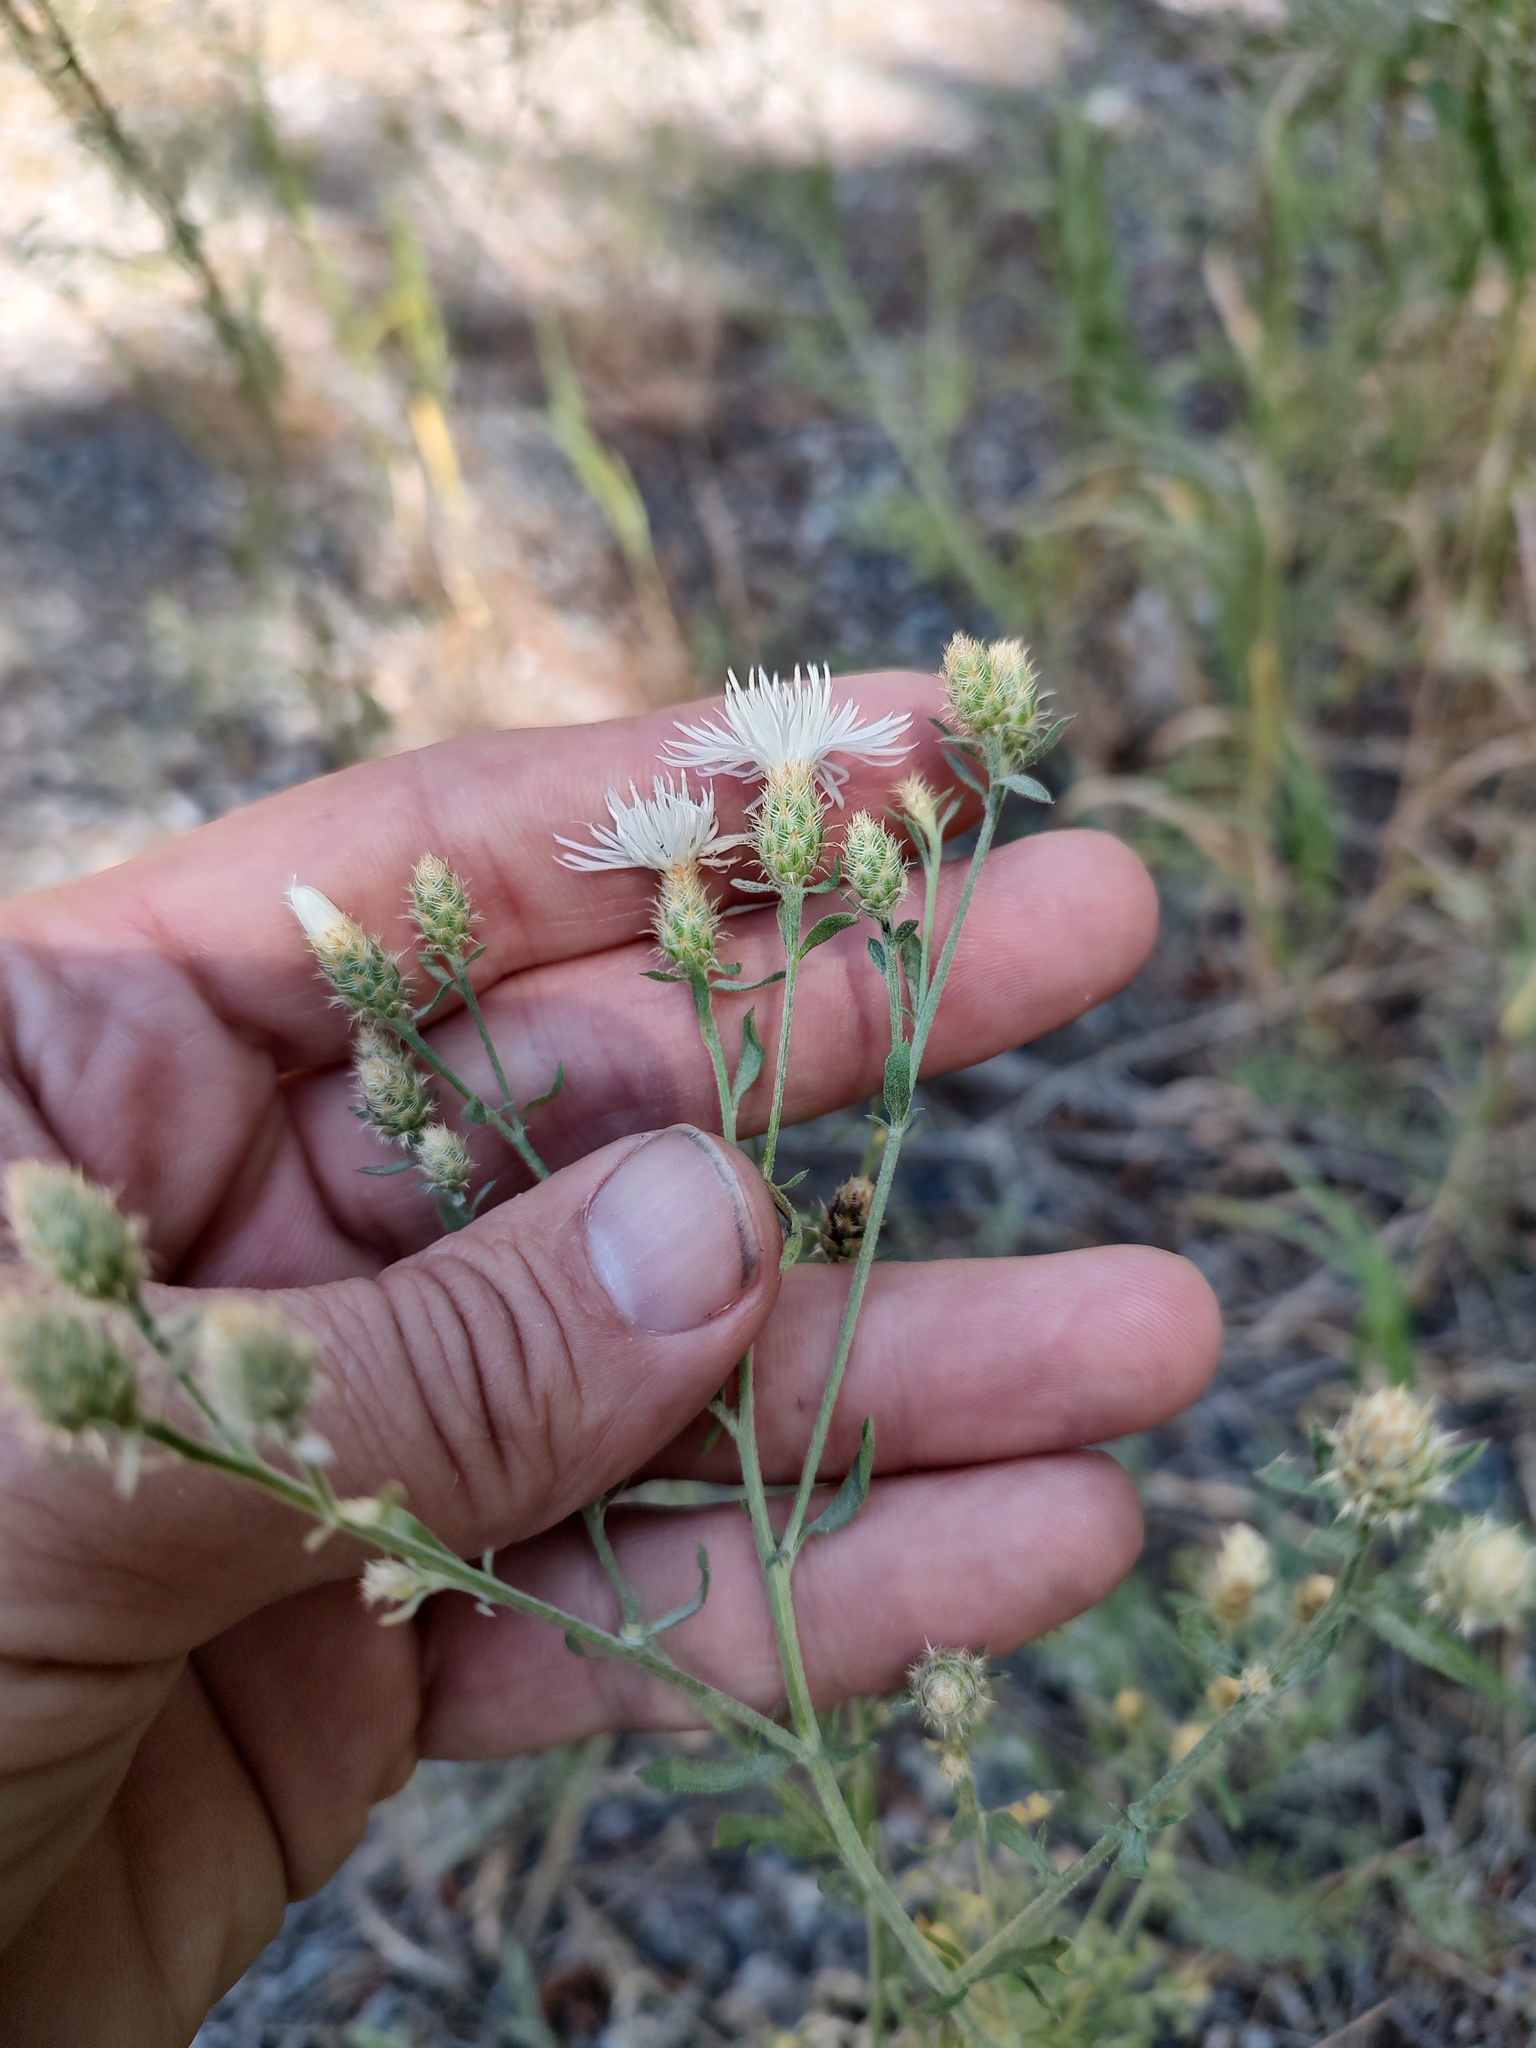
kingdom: Plantae
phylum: Tracheophyta
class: Magnoliopsida
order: Asterales
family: Asteraceae
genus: Centaurea
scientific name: Centaurea diffusa
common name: Diffuse knapweed
